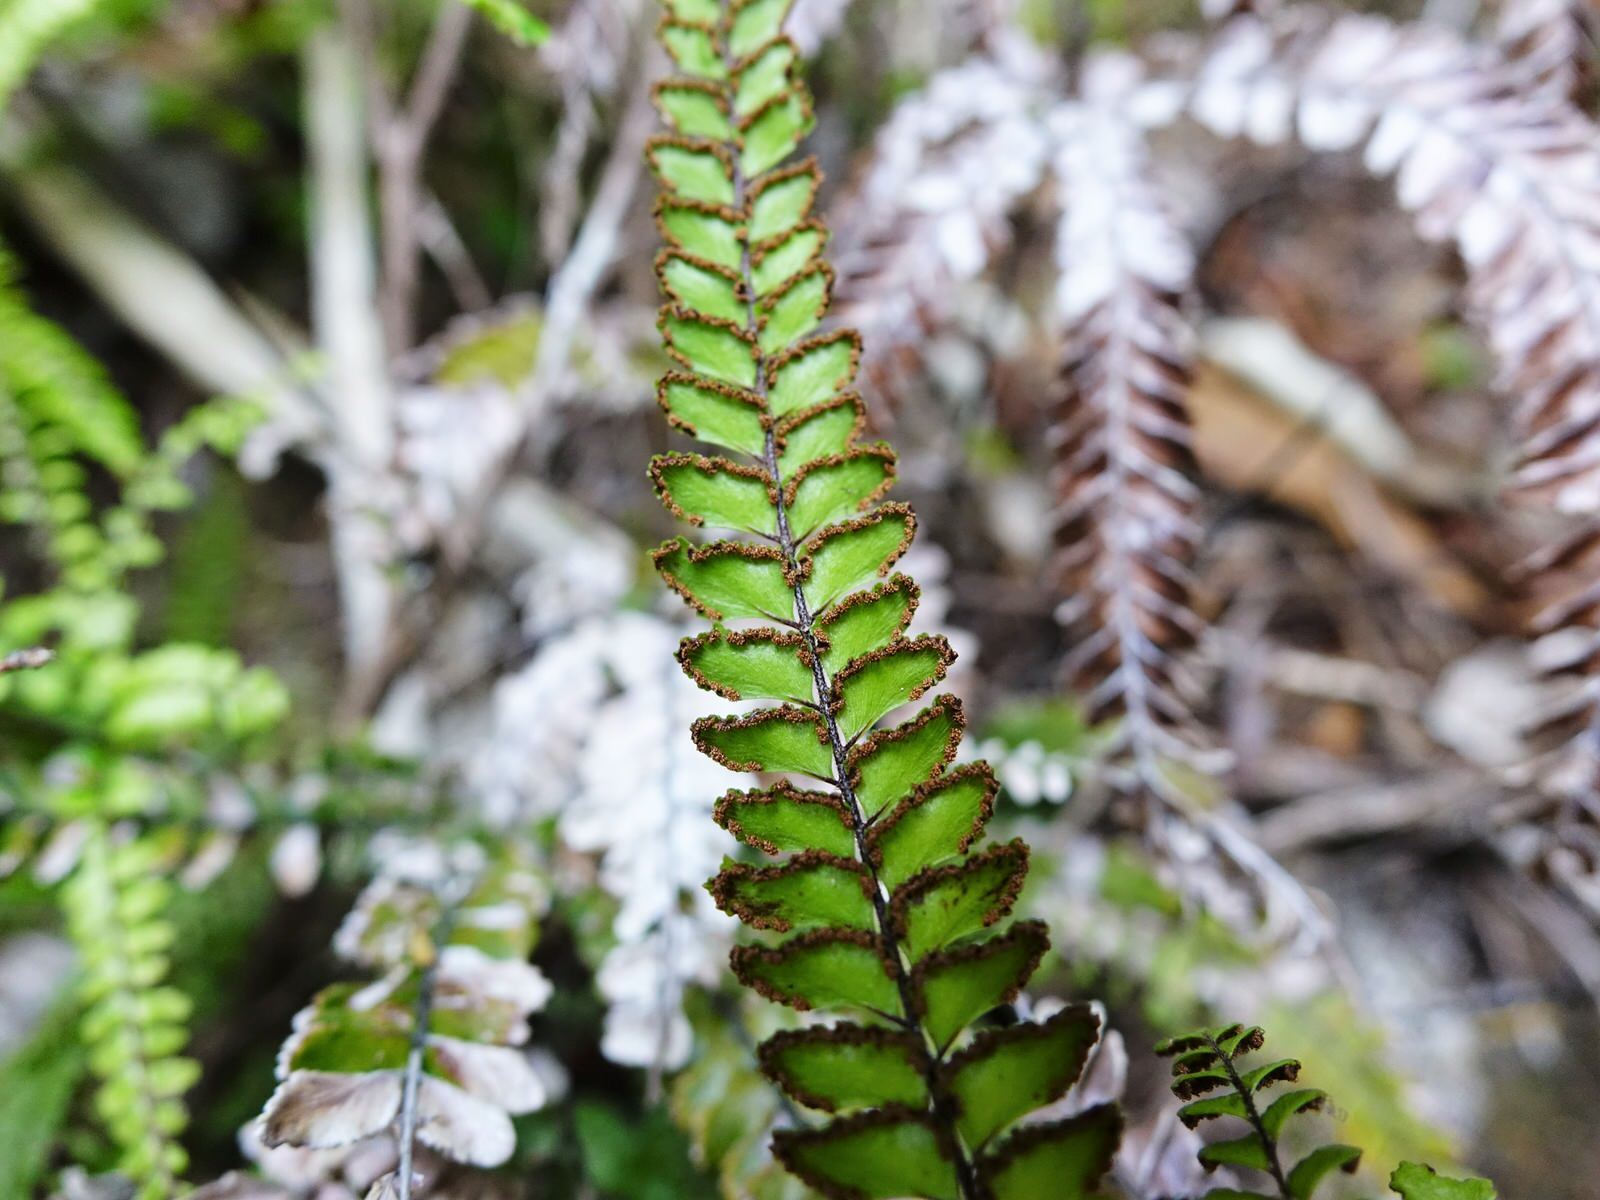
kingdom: Plantae
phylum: Tracheophyta
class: Polypodiopsida
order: Polypodiales
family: Pteridaceae
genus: Adiantum
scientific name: Adiantum hispidulum
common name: Rough maidenhair
